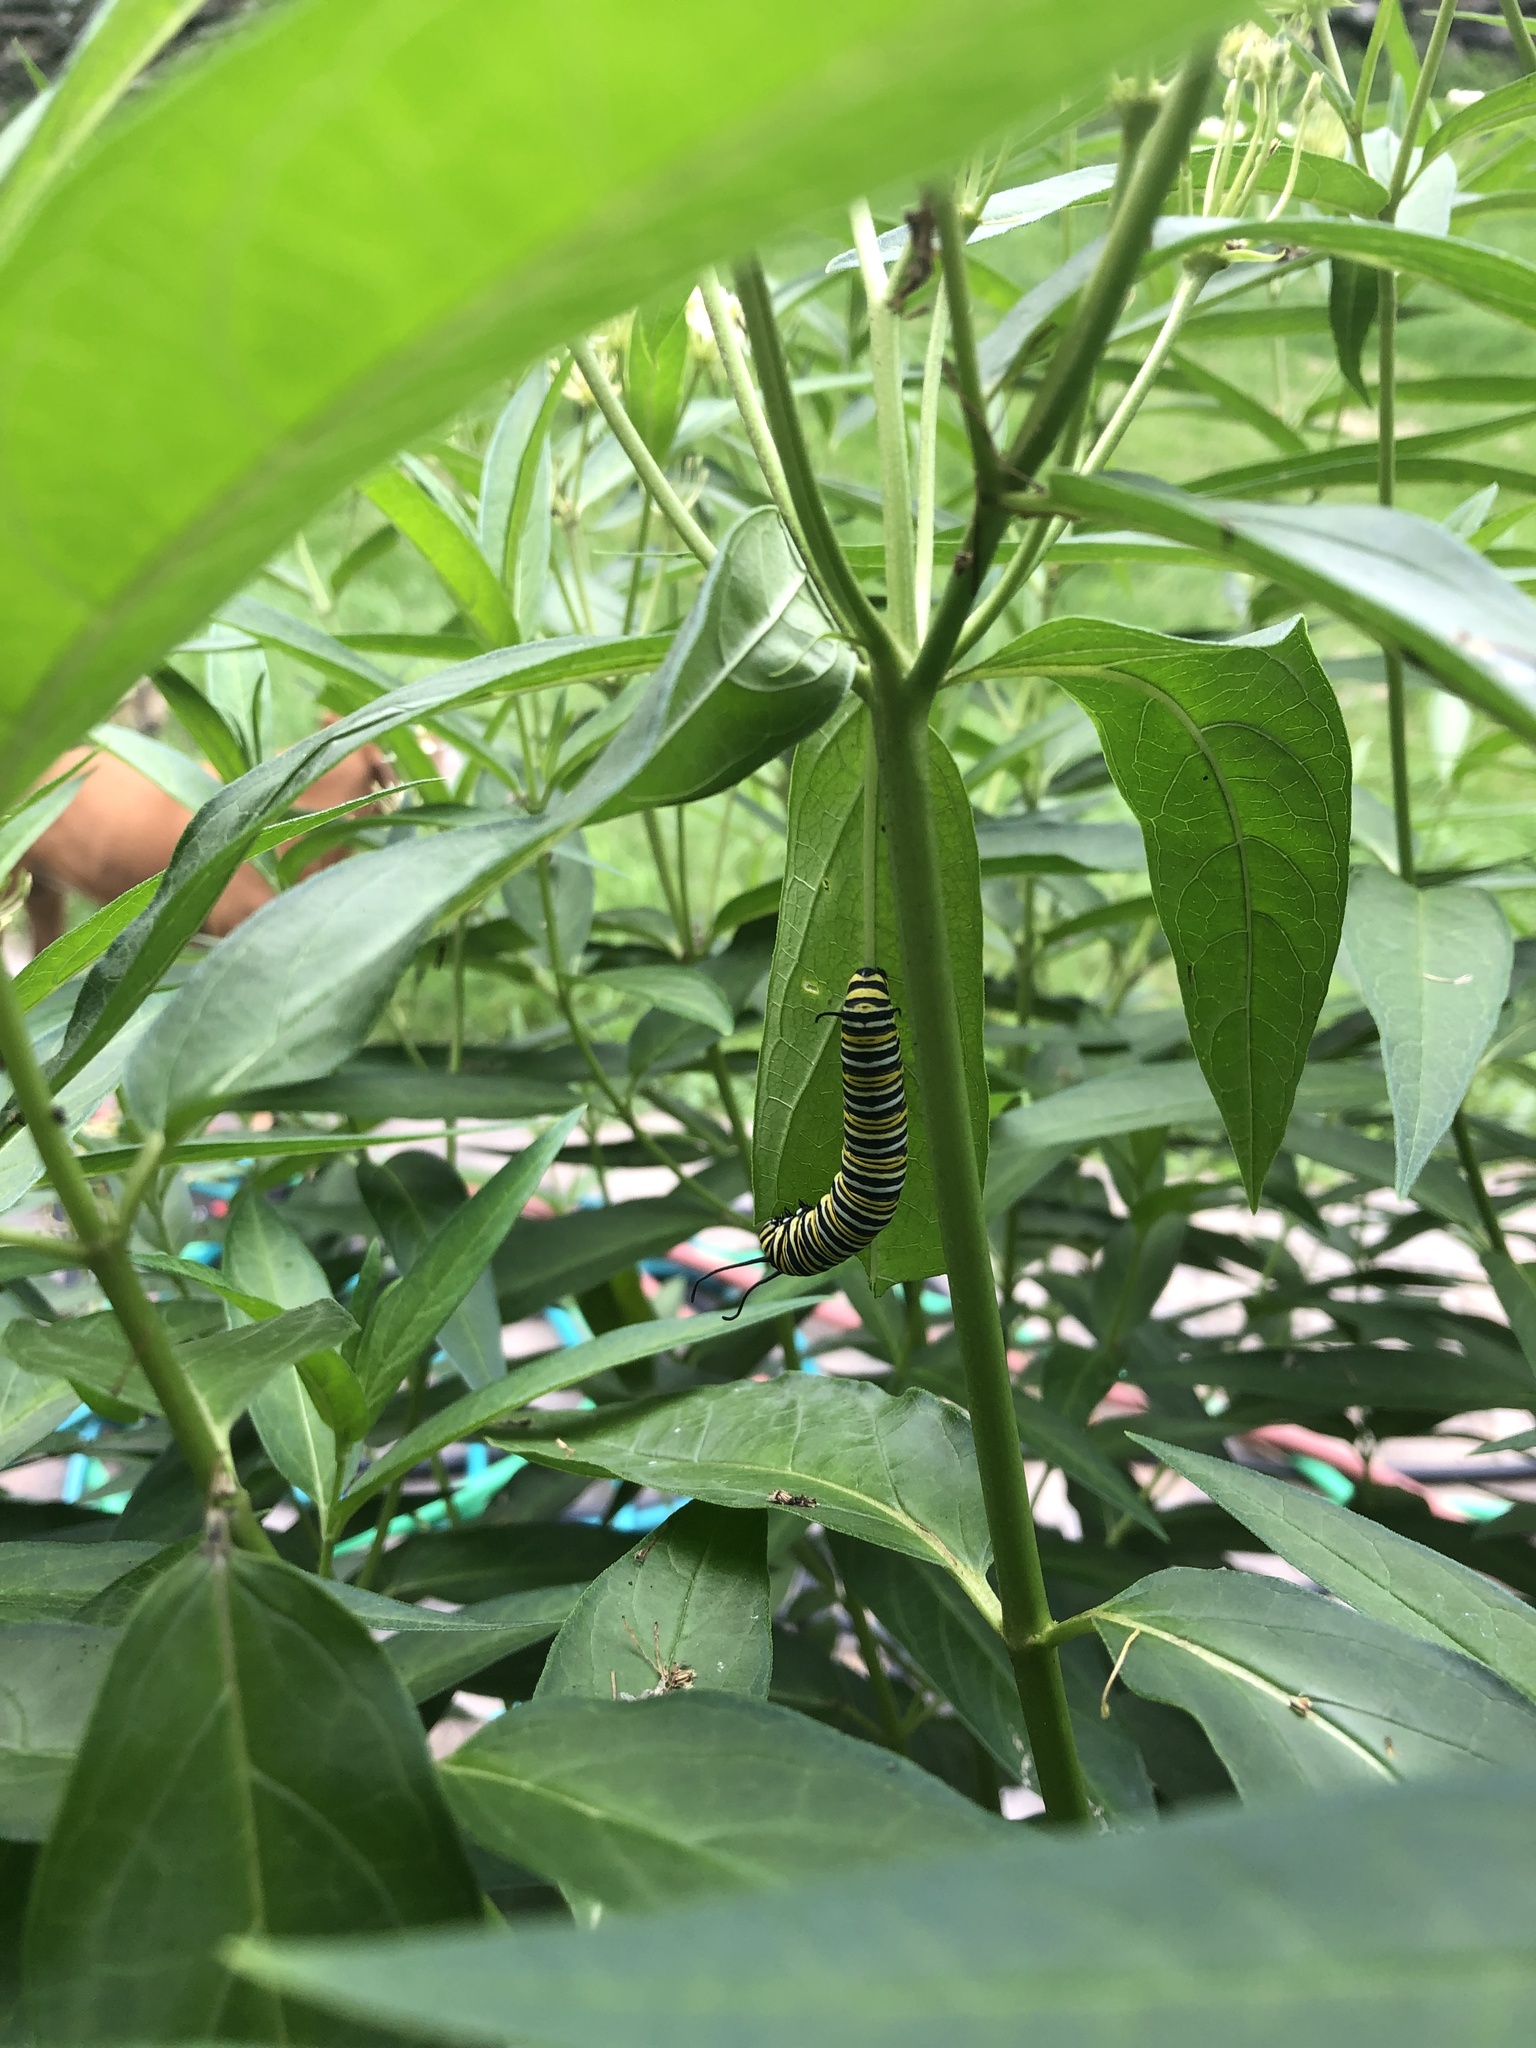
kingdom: Animalia
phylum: Arthropoda
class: Insecta
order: Lepidoptera
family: Nymphalidae
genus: Danaus
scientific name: Danaus plexippus
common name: Monarch
